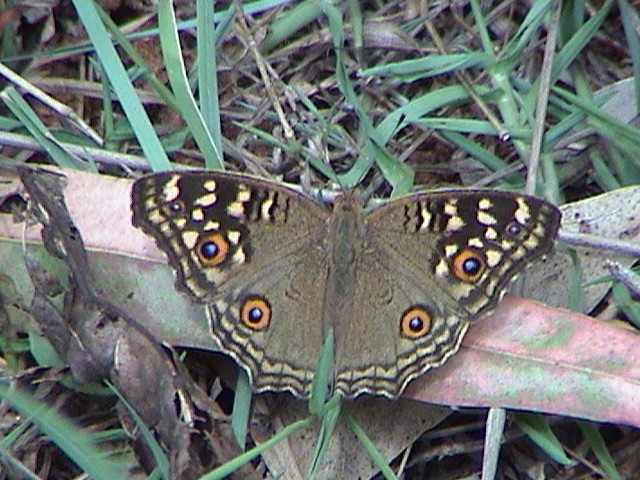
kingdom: Animalia
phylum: Arthropoda
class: Insecta
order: Lepidoptera
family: Nymphalidae
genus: Junonia
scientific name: Junonia lemonias
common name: Lemon pansy
